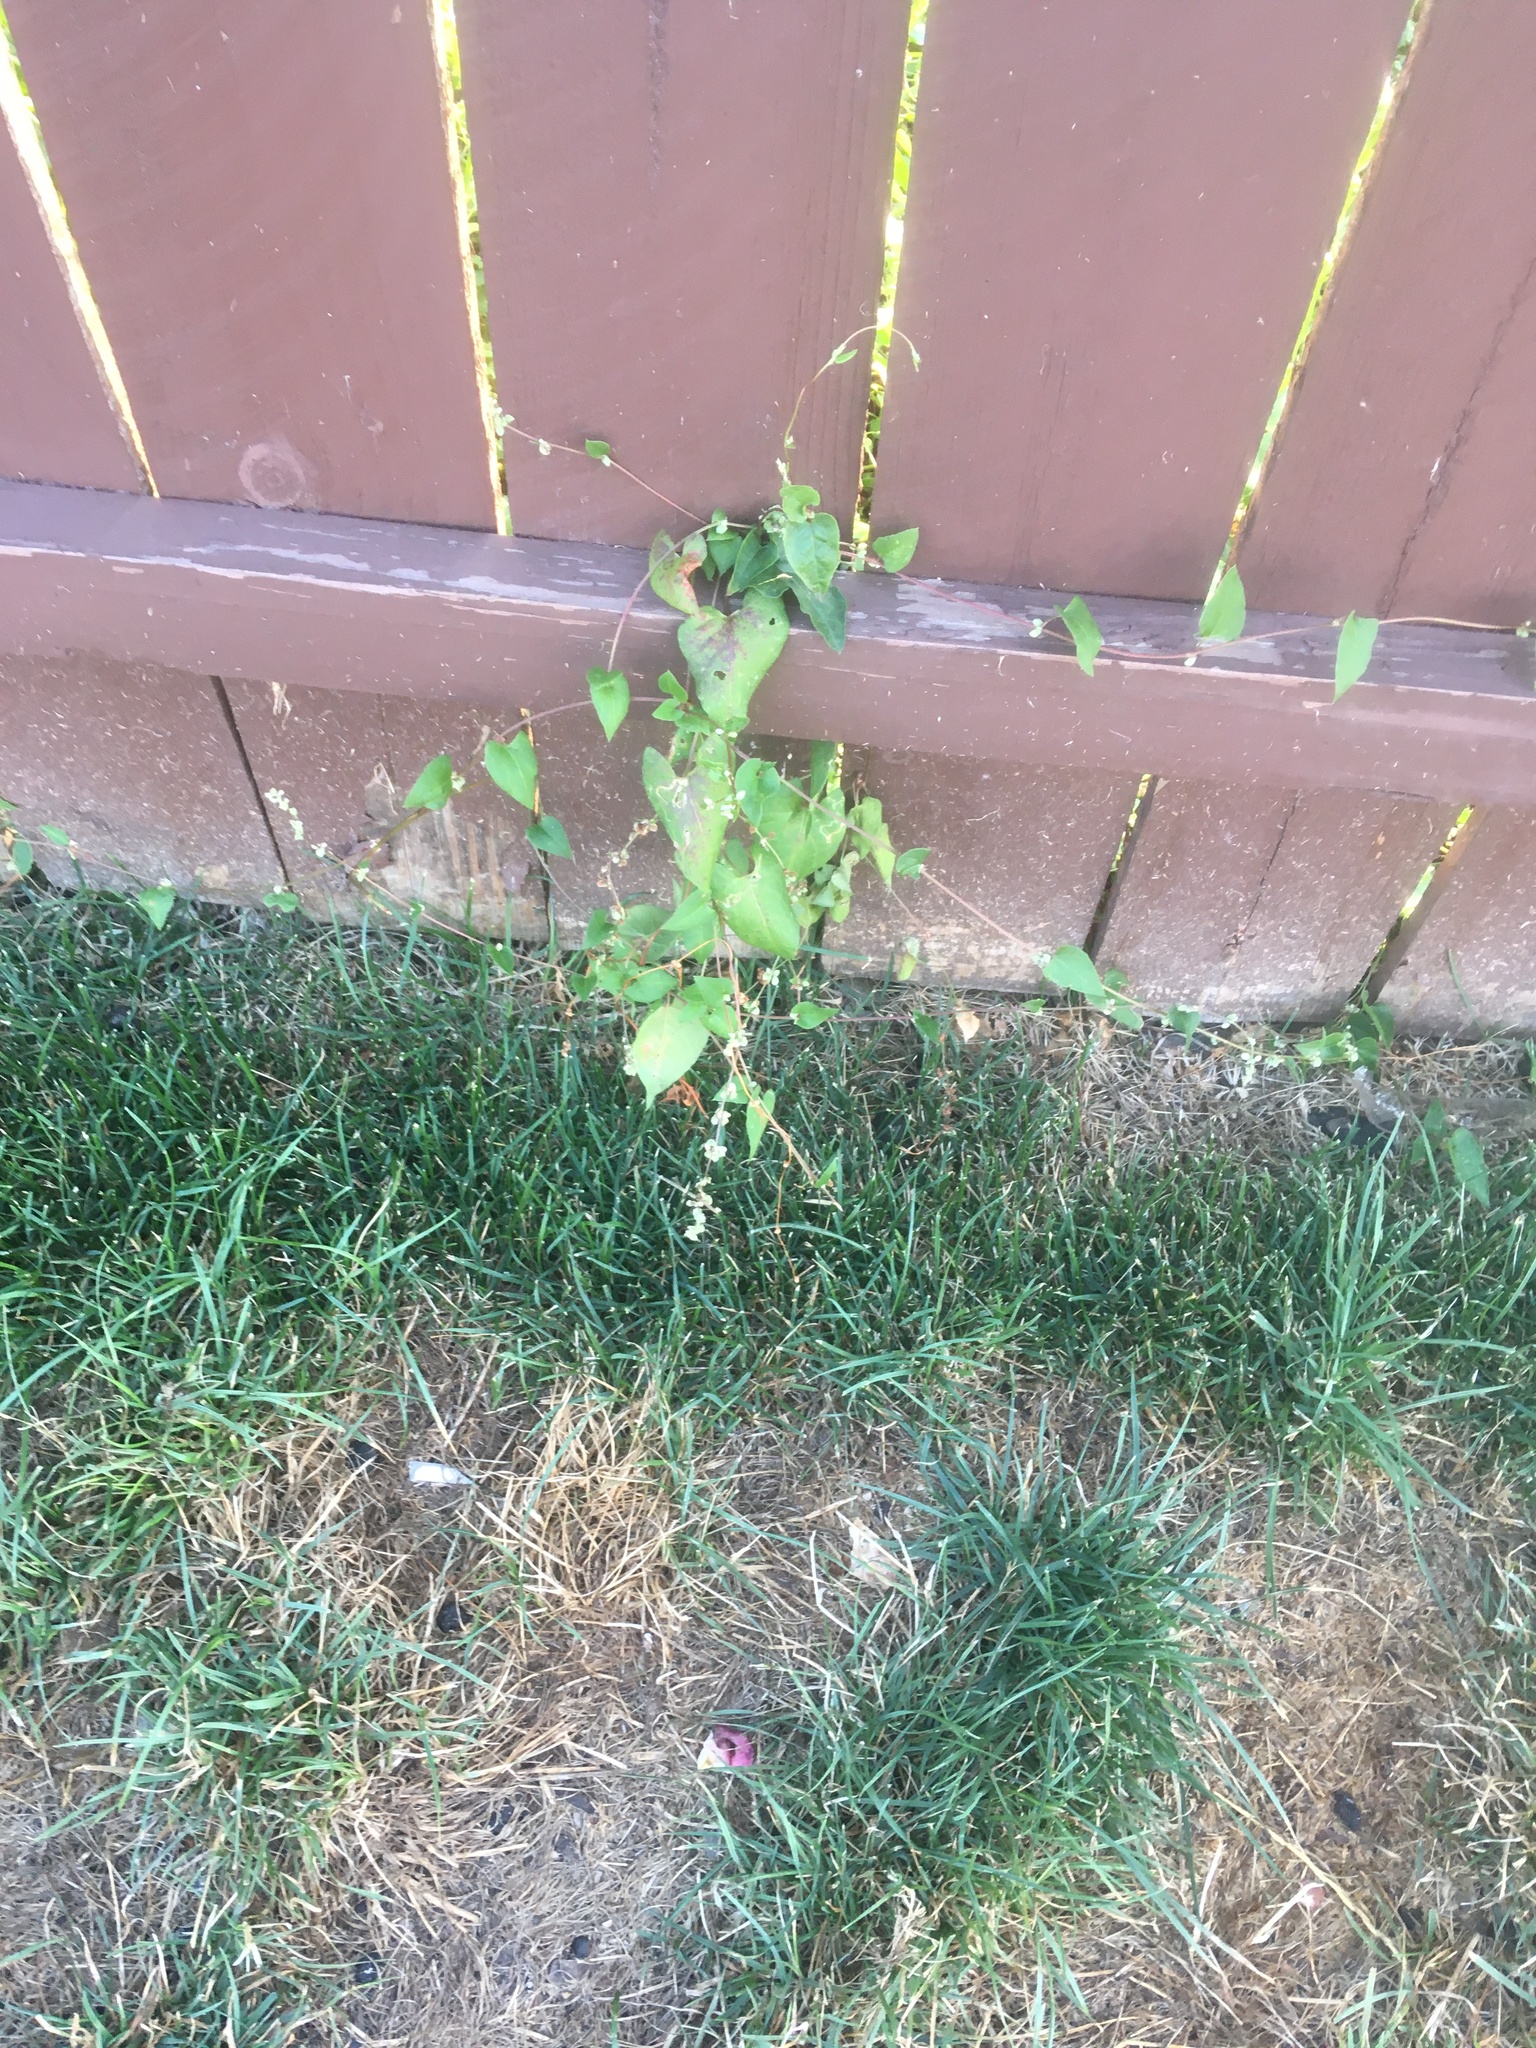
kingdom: Plantae
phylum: Tracheophyta
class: Magnoliopsida
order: Caryophyllales
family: Polygonaceae
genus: Fallopia
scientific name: Fallopia convolvulus
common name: Black bindweed
